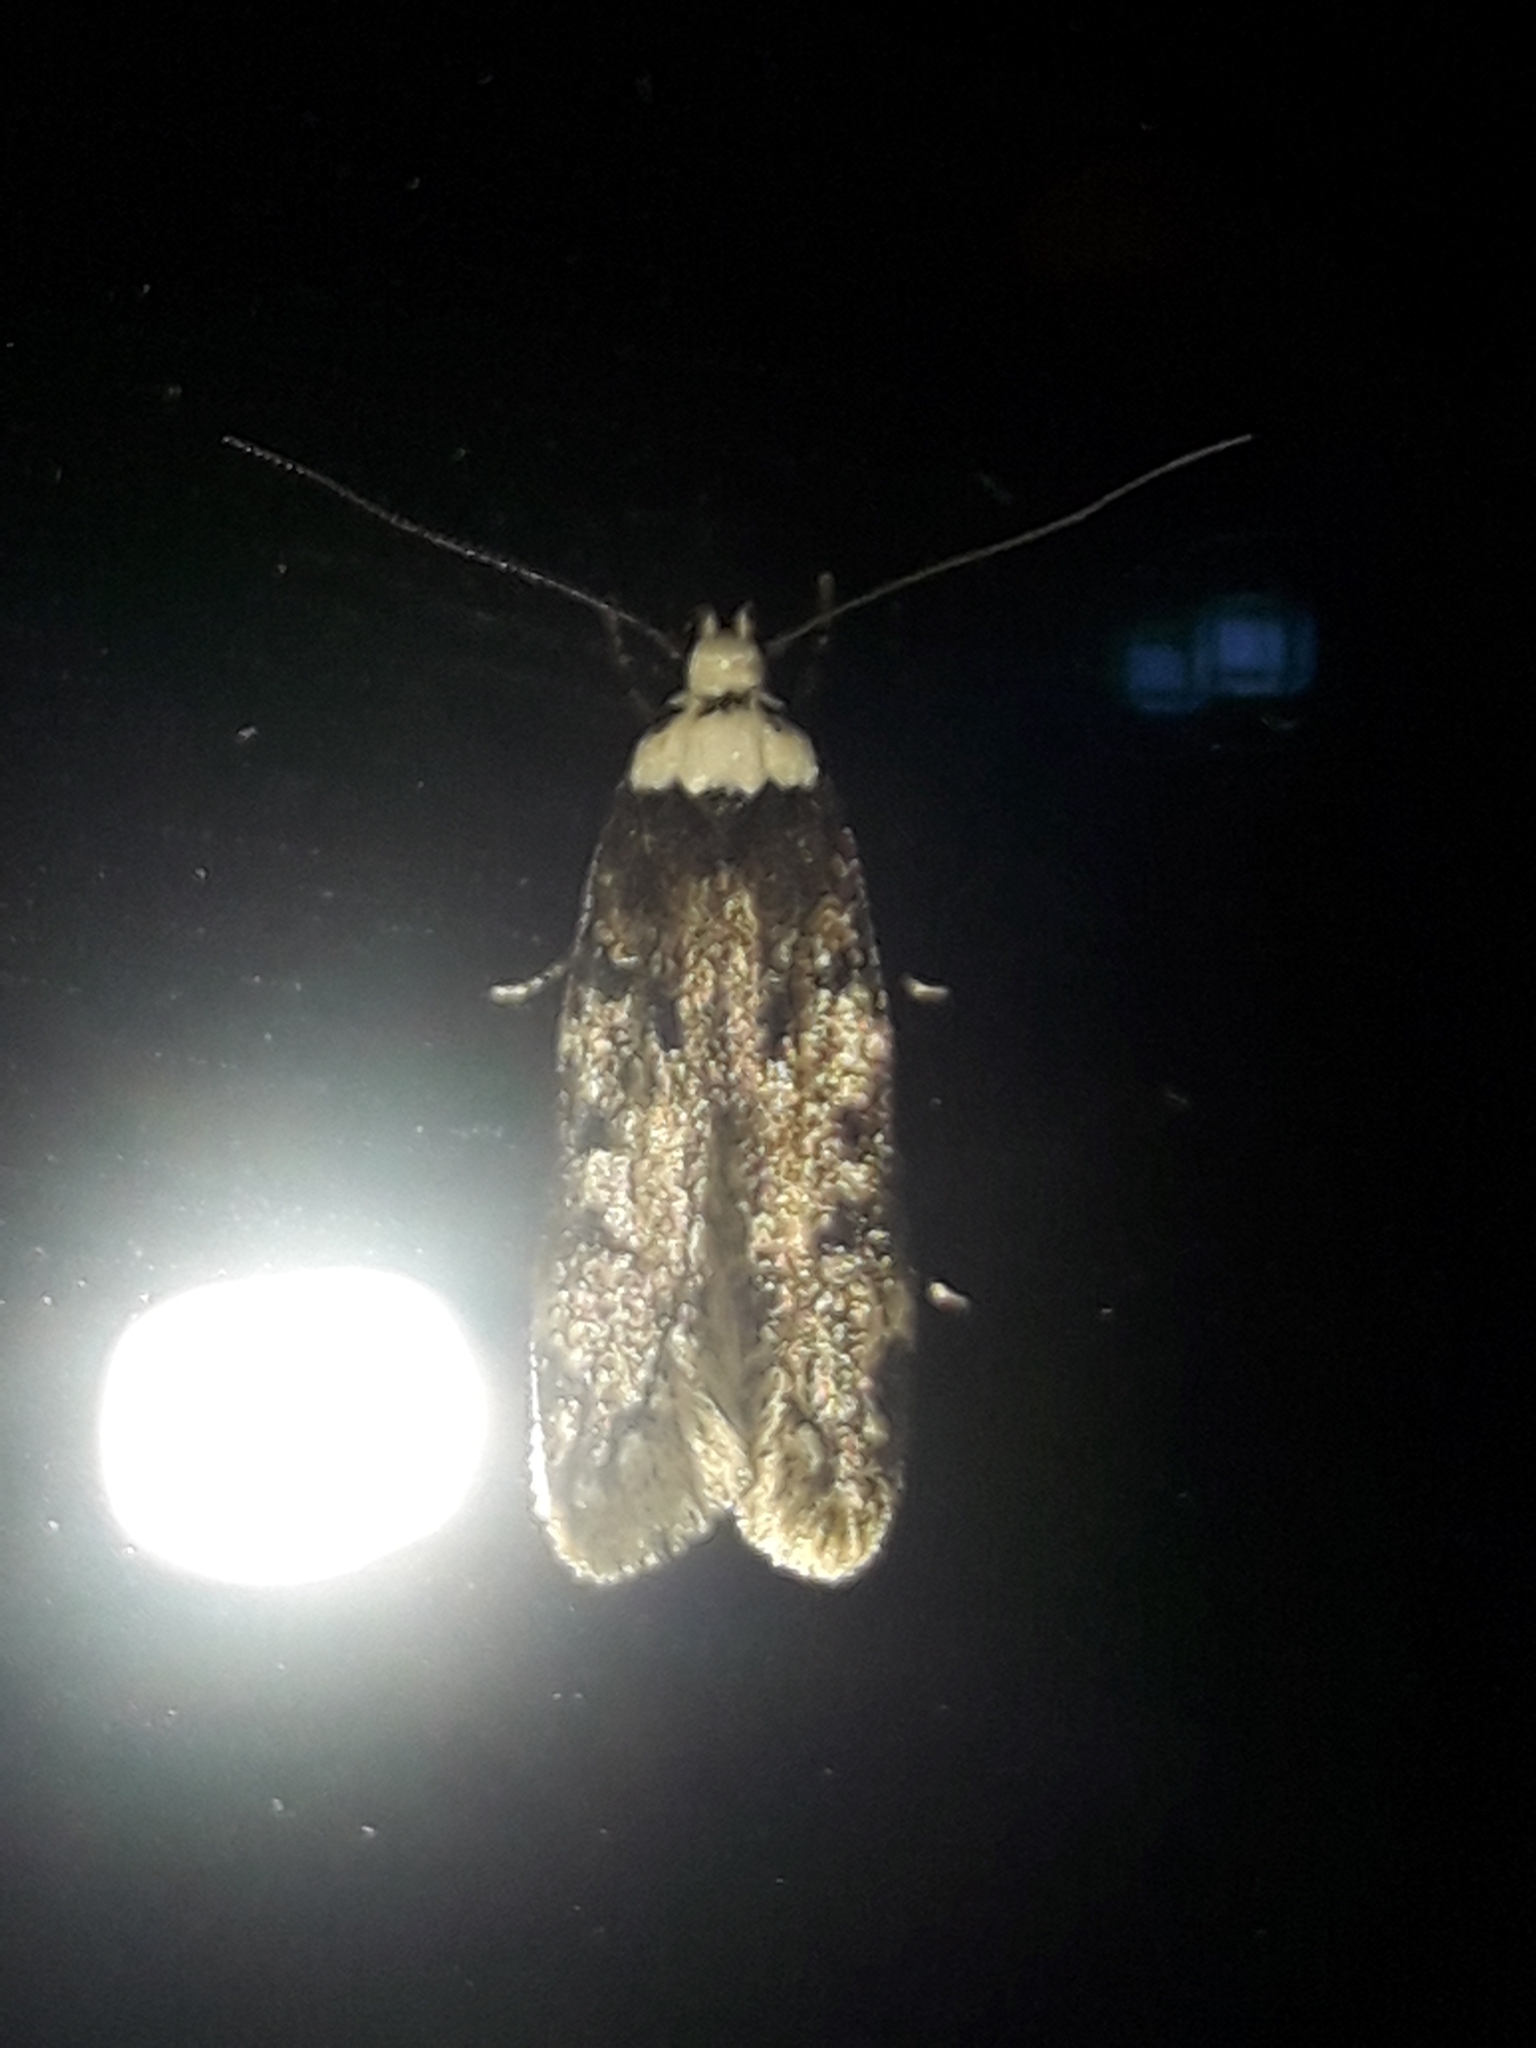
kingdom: Animalia
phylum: Arthropoda
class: Insecta
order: Lepidoptera
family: Oecophoridae
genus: Endrosis
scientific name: Endrosis sarcitrella
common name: White-shouldered house moth
